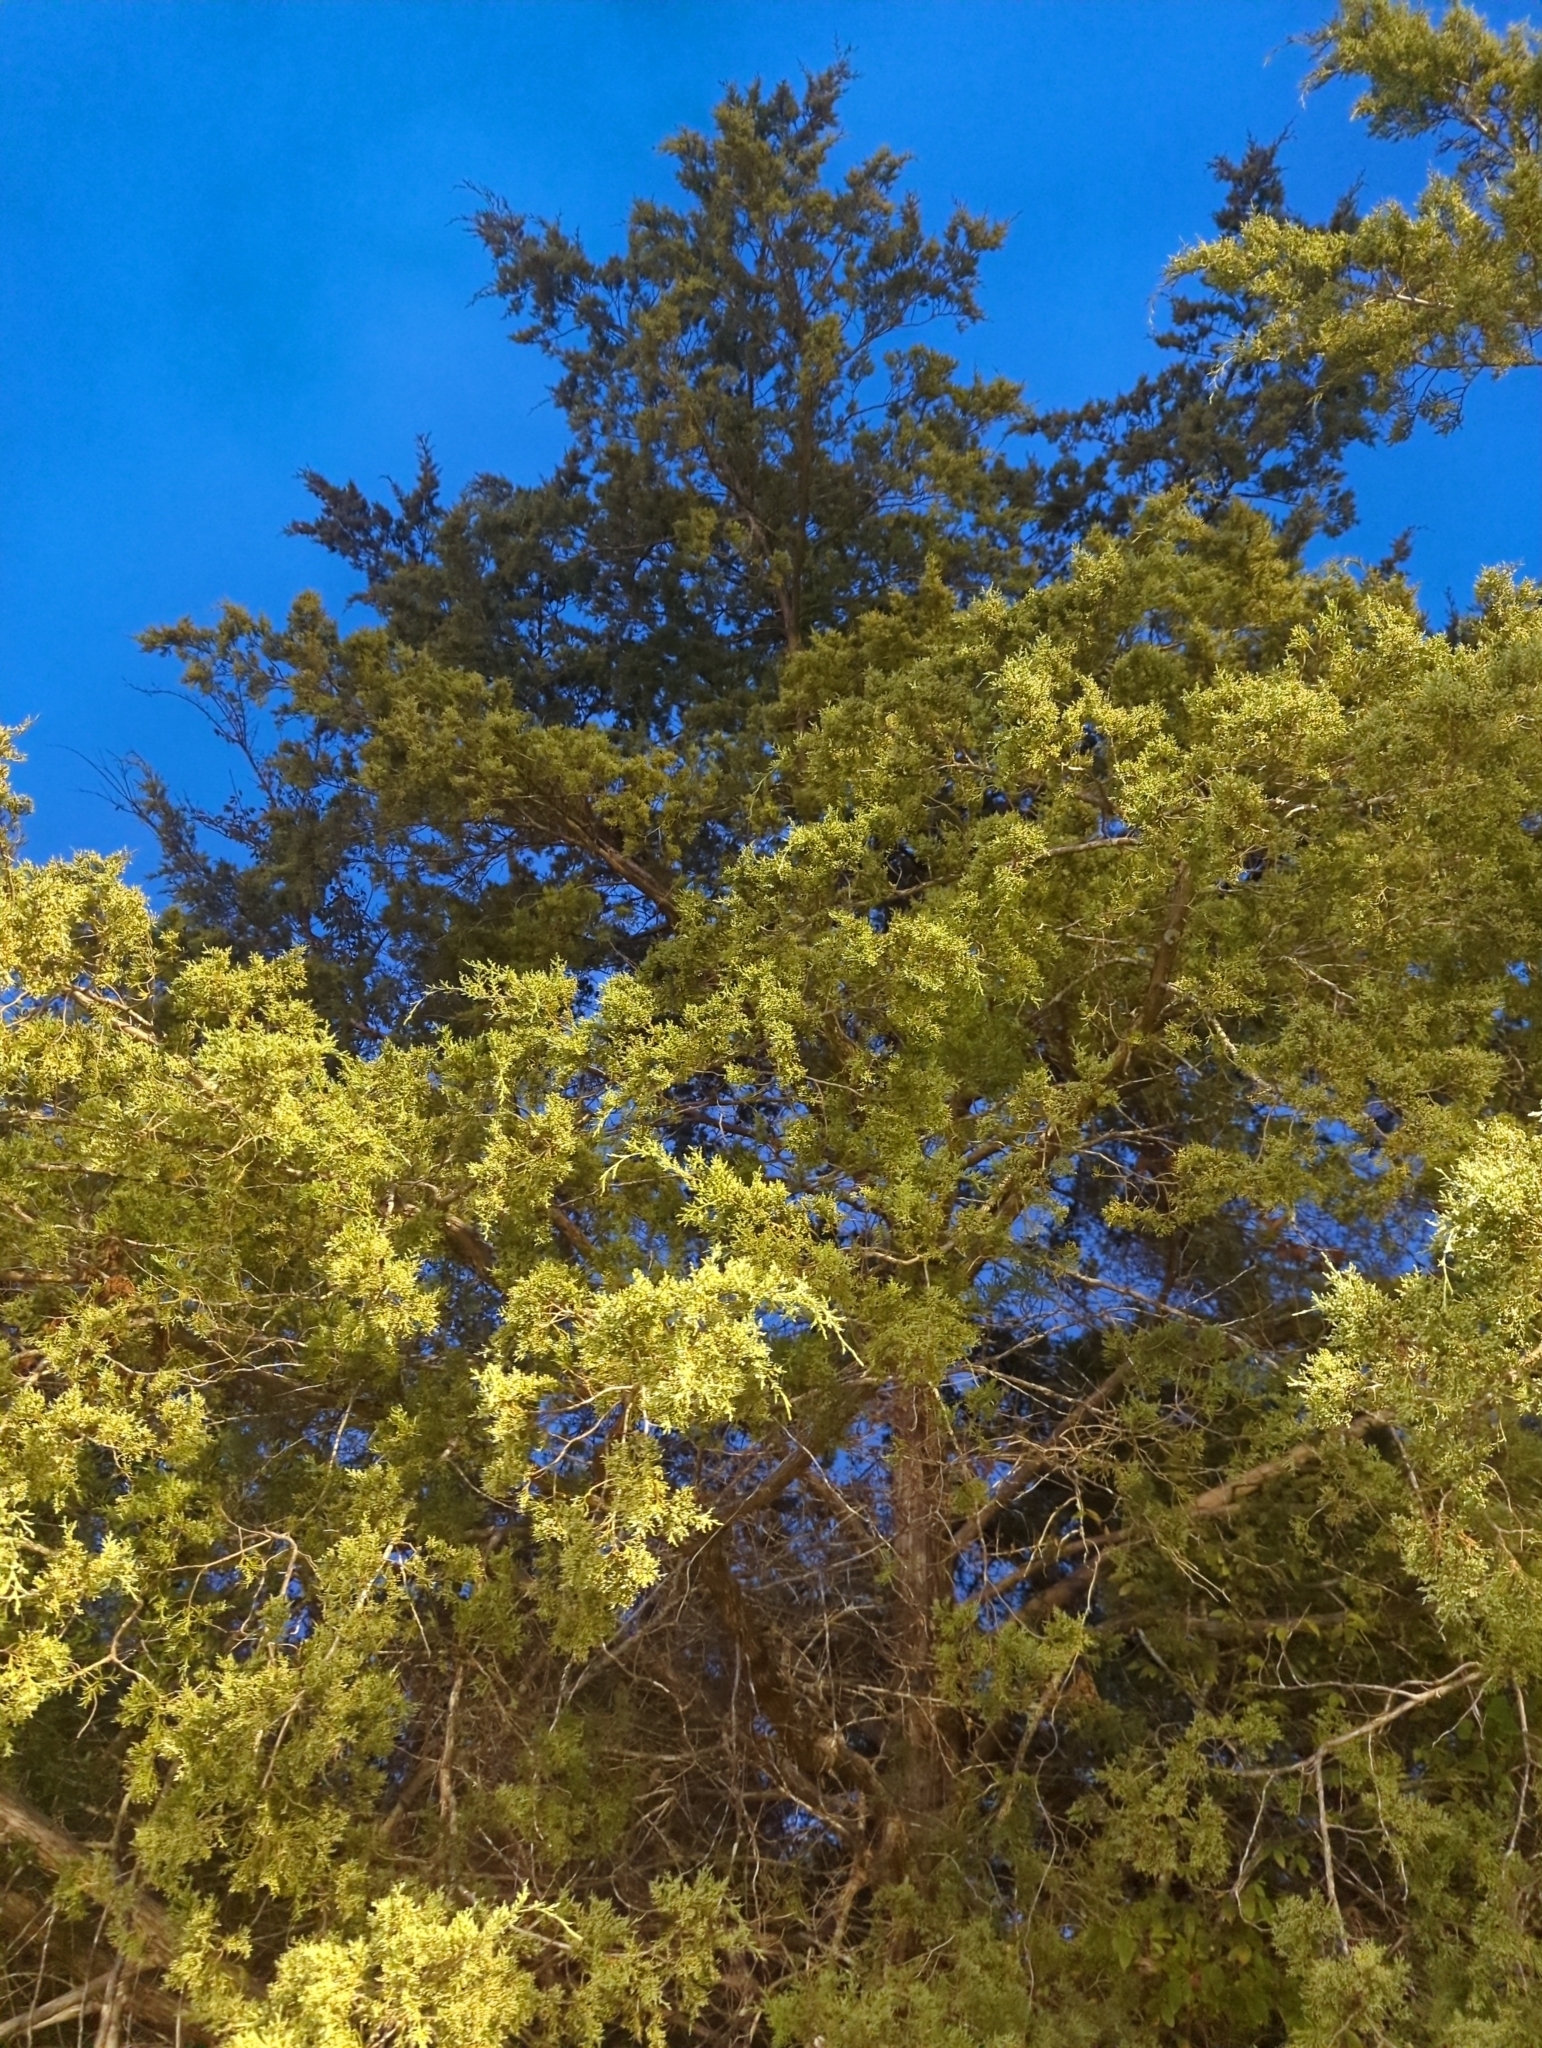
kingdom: Plantae
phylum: Tracheophyta
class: Pinopsida
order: Pinales
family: Cupressaceae
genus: Juniperus
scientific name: Juniperus virginiana
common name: Red juniper
